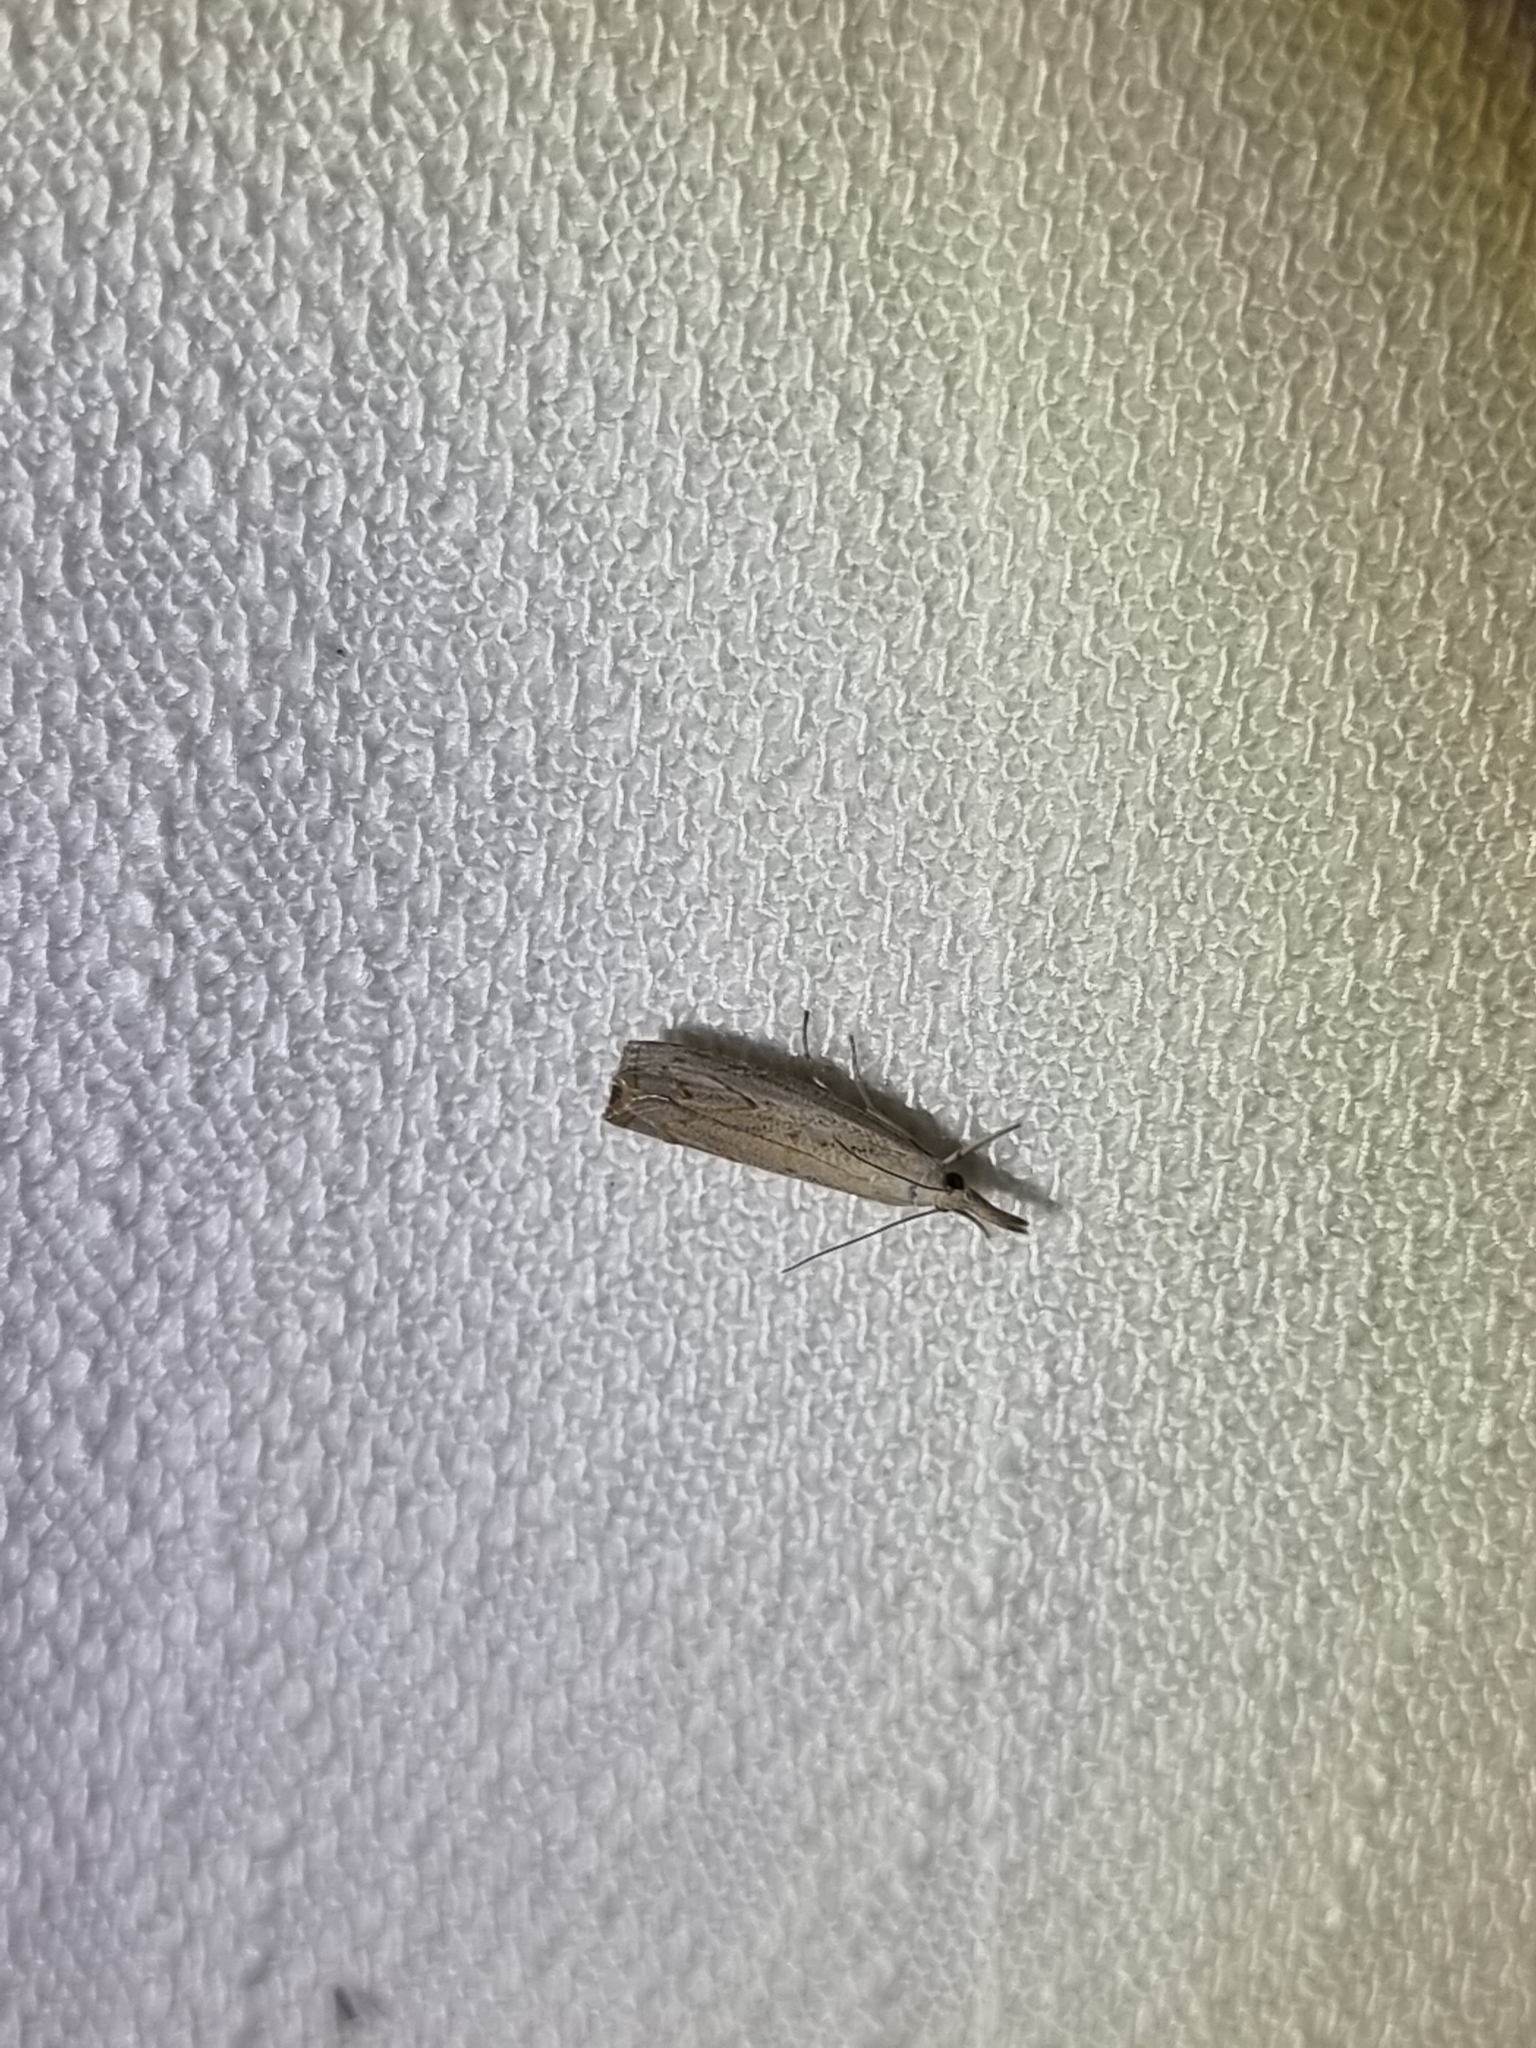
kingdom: Animalia
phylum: Arthropoda
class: Insecta
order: Lepidoptera
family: Crambidae
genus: Culladia
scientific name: Culladia cuneiferellus
